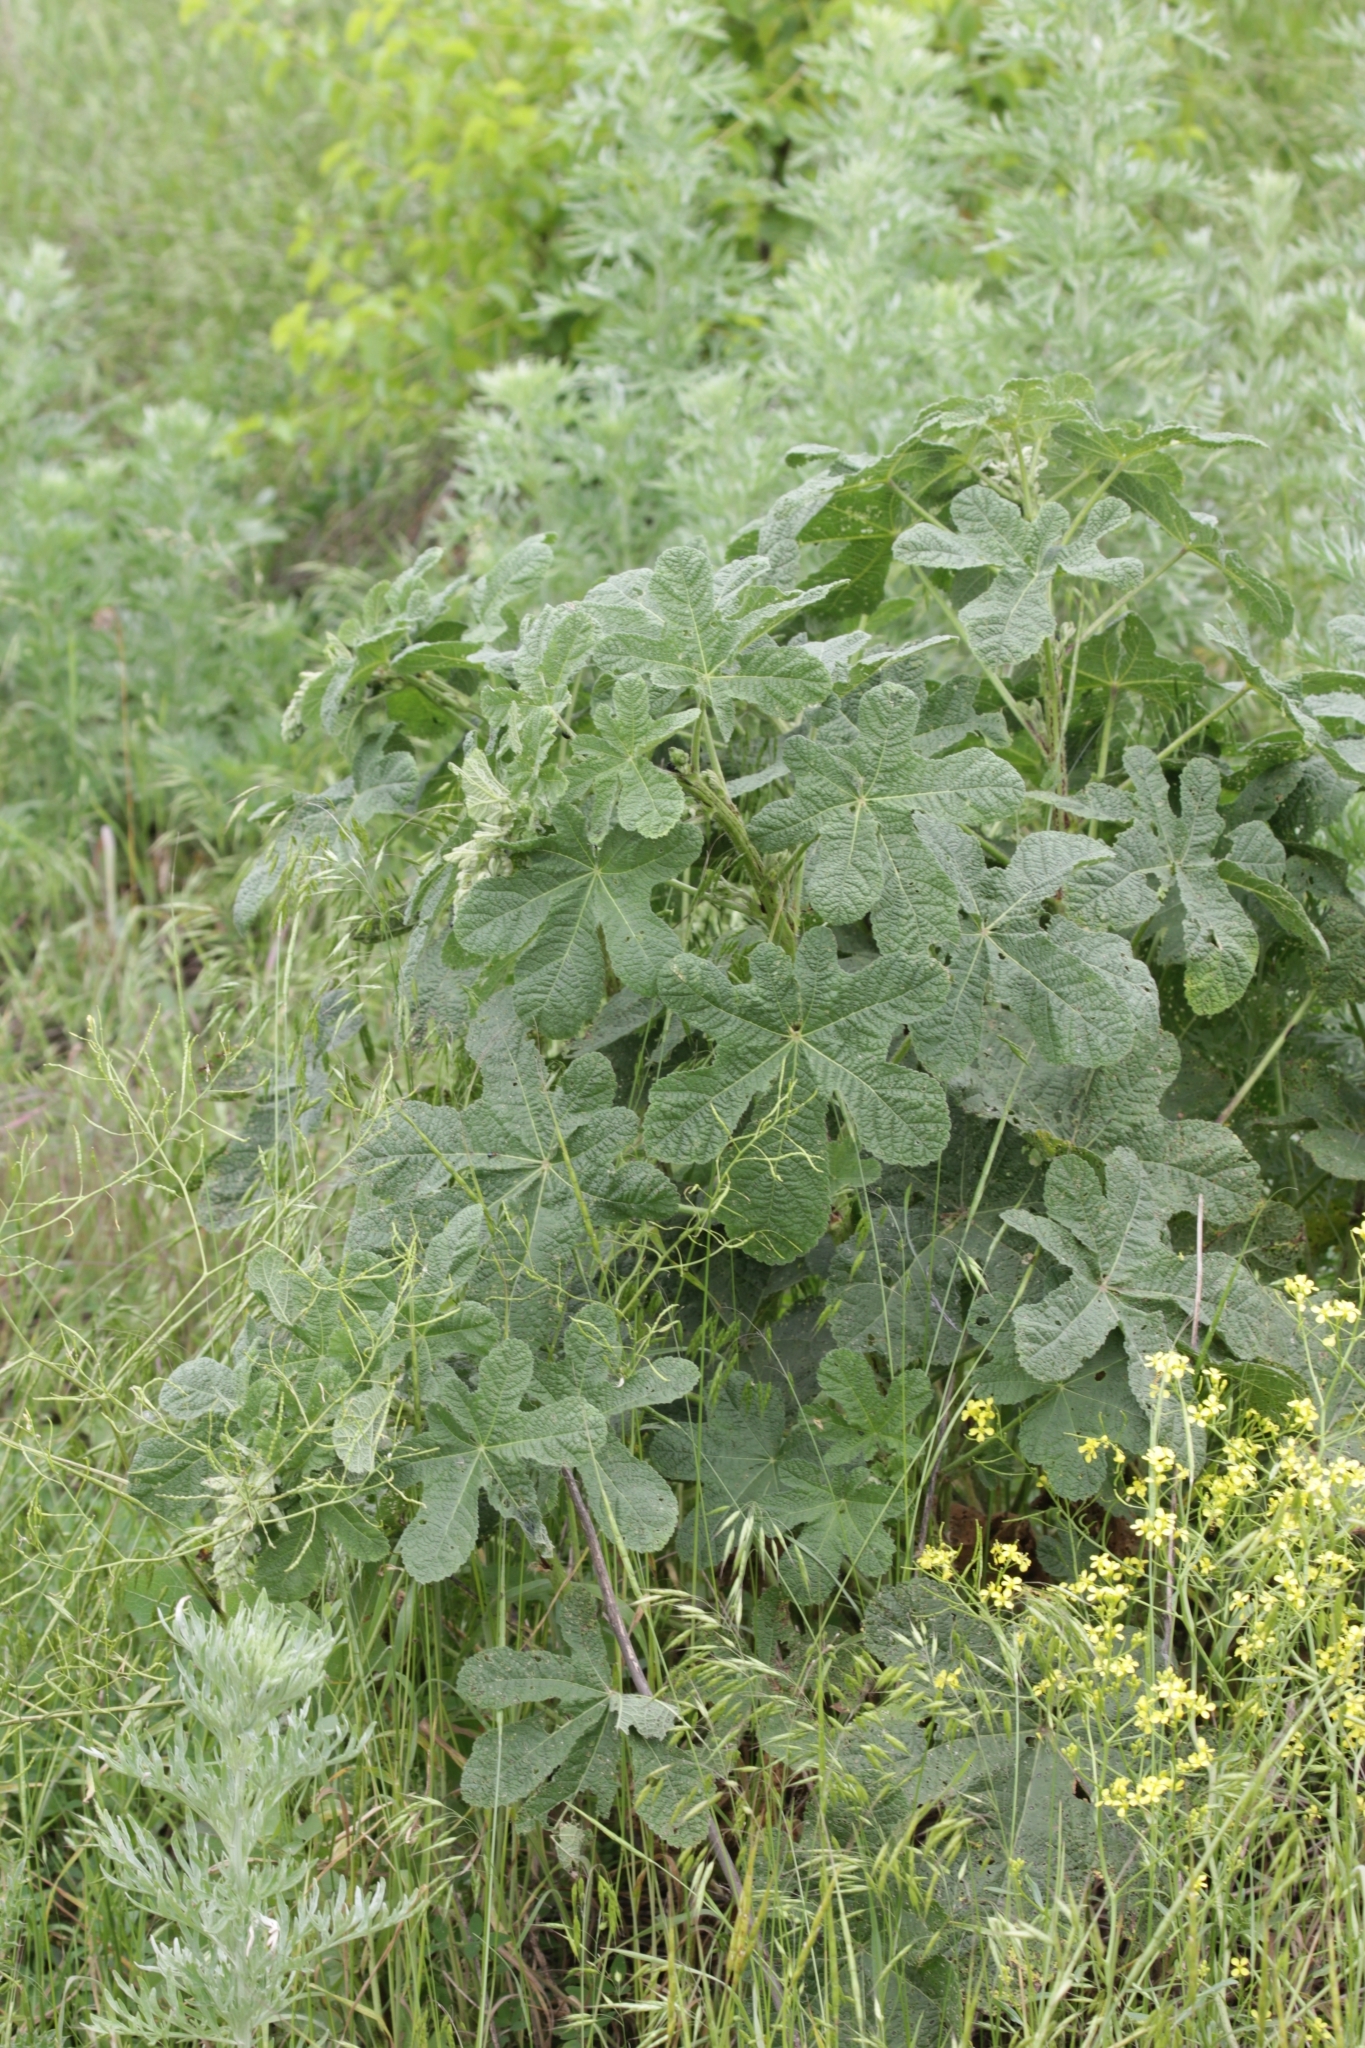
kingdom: Plantae
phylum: Tracheophyta
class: Magnoliopsida
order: Malvales
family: Malvaceae
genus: Alcea
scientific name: Alcea rugosa
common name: Russian hollyhock
